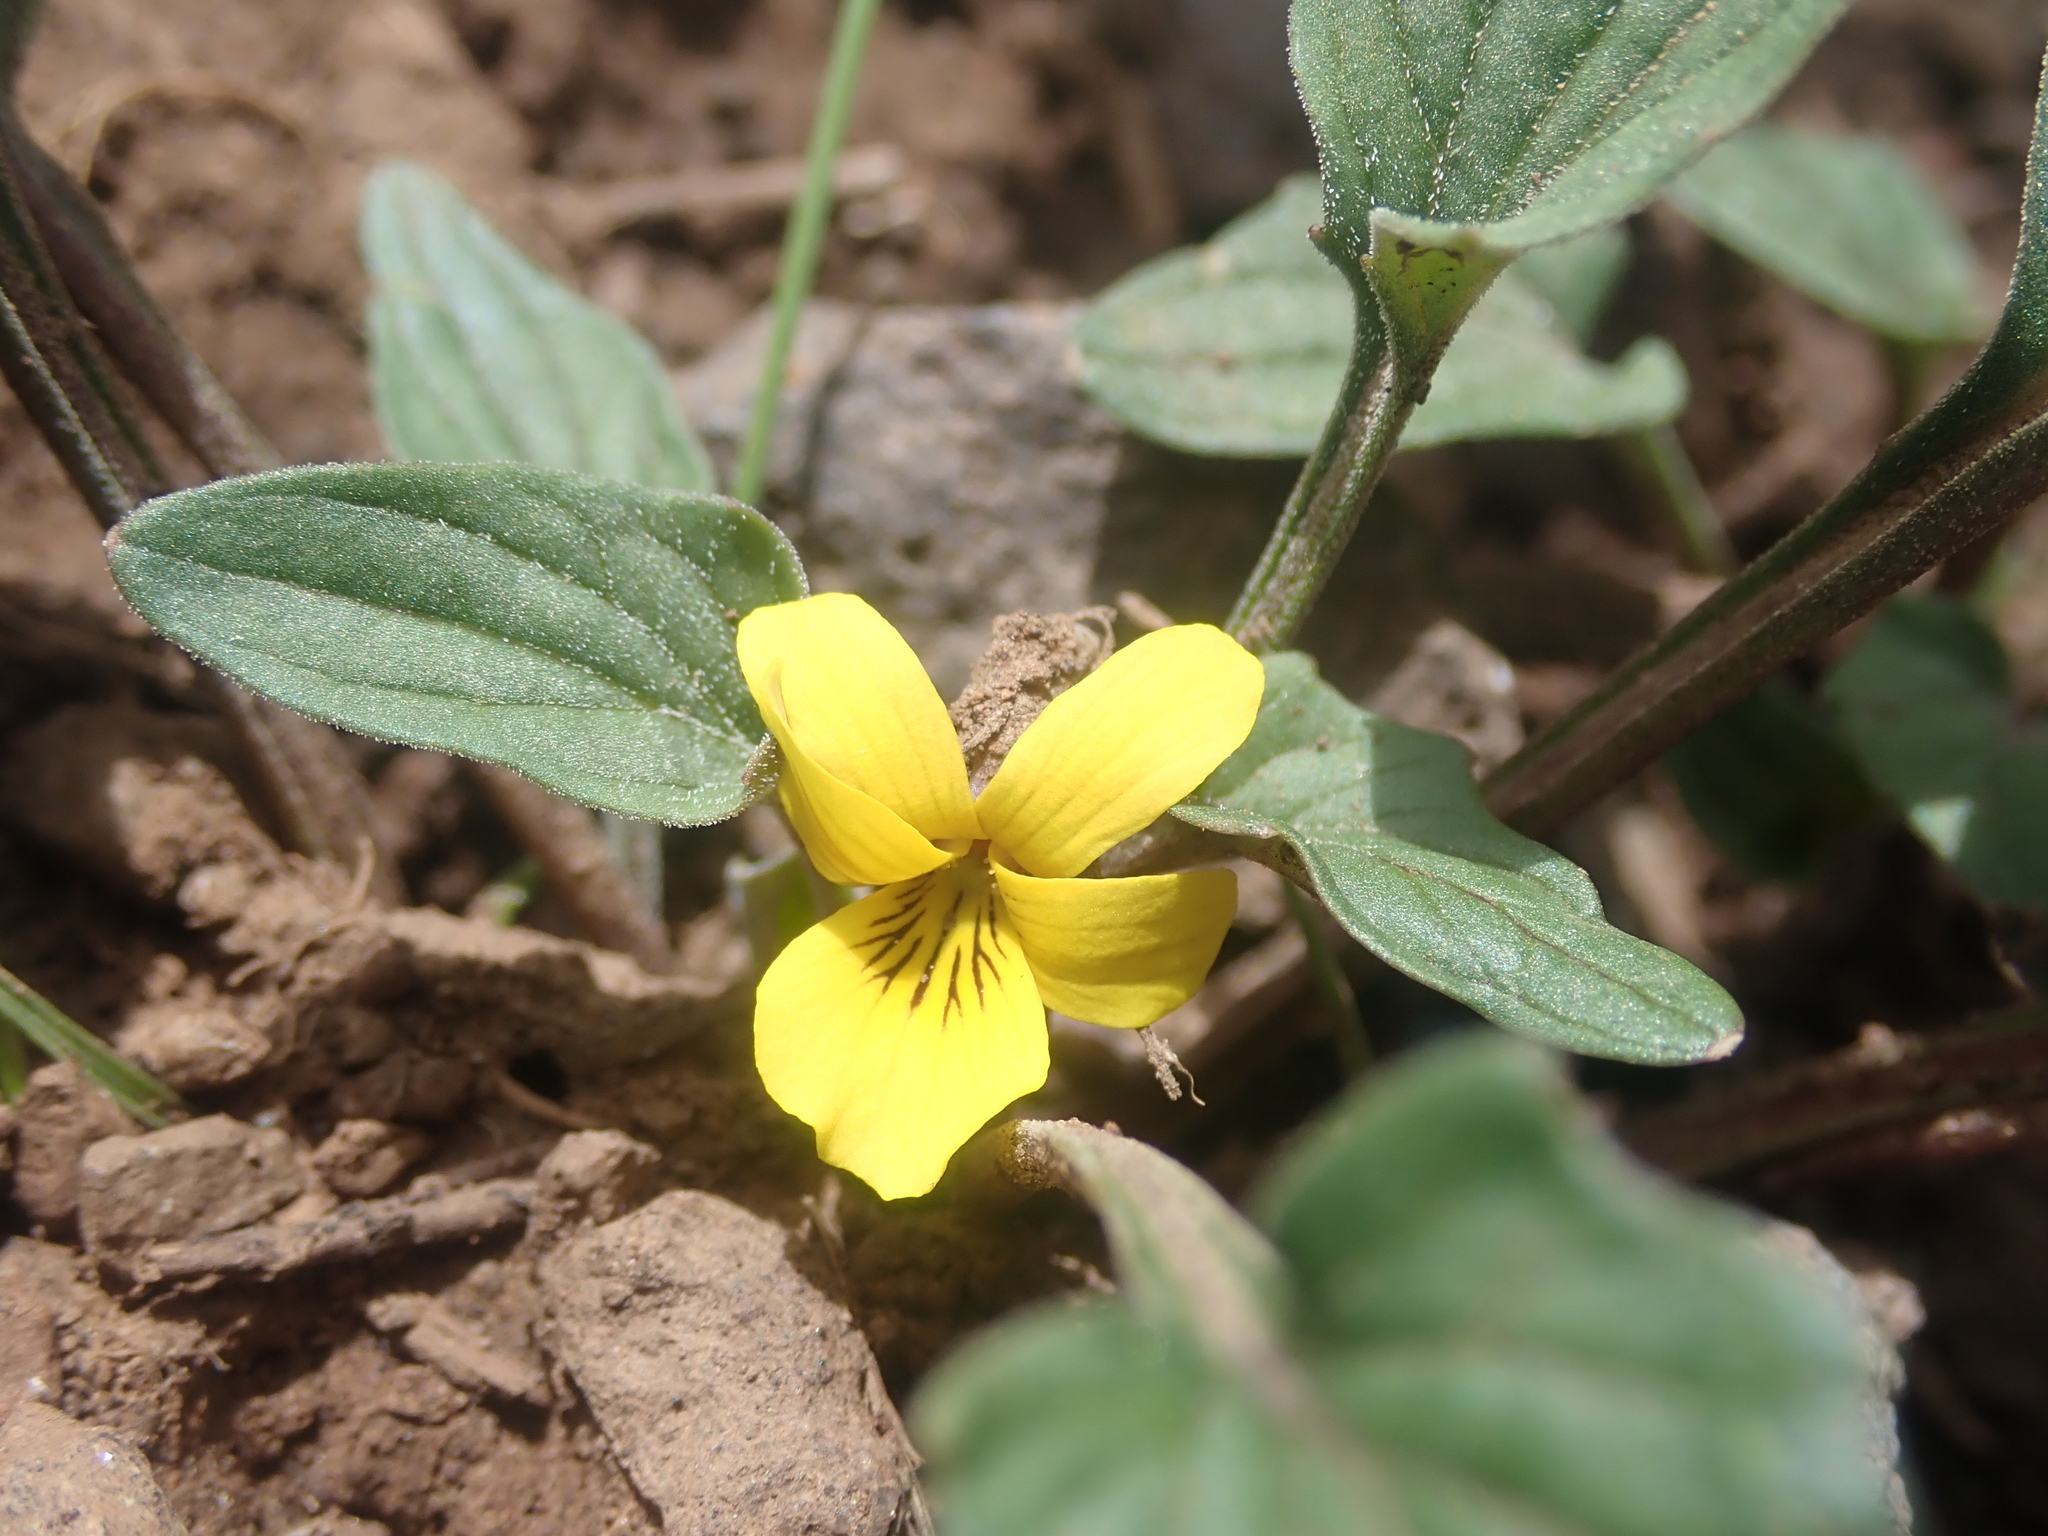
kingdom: Plantae
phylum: Tracheophyta
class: Magnoliopsida
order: Malpighiales
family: Violaceae
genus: Viola
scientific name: Viola purpurea
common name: Pine violet
